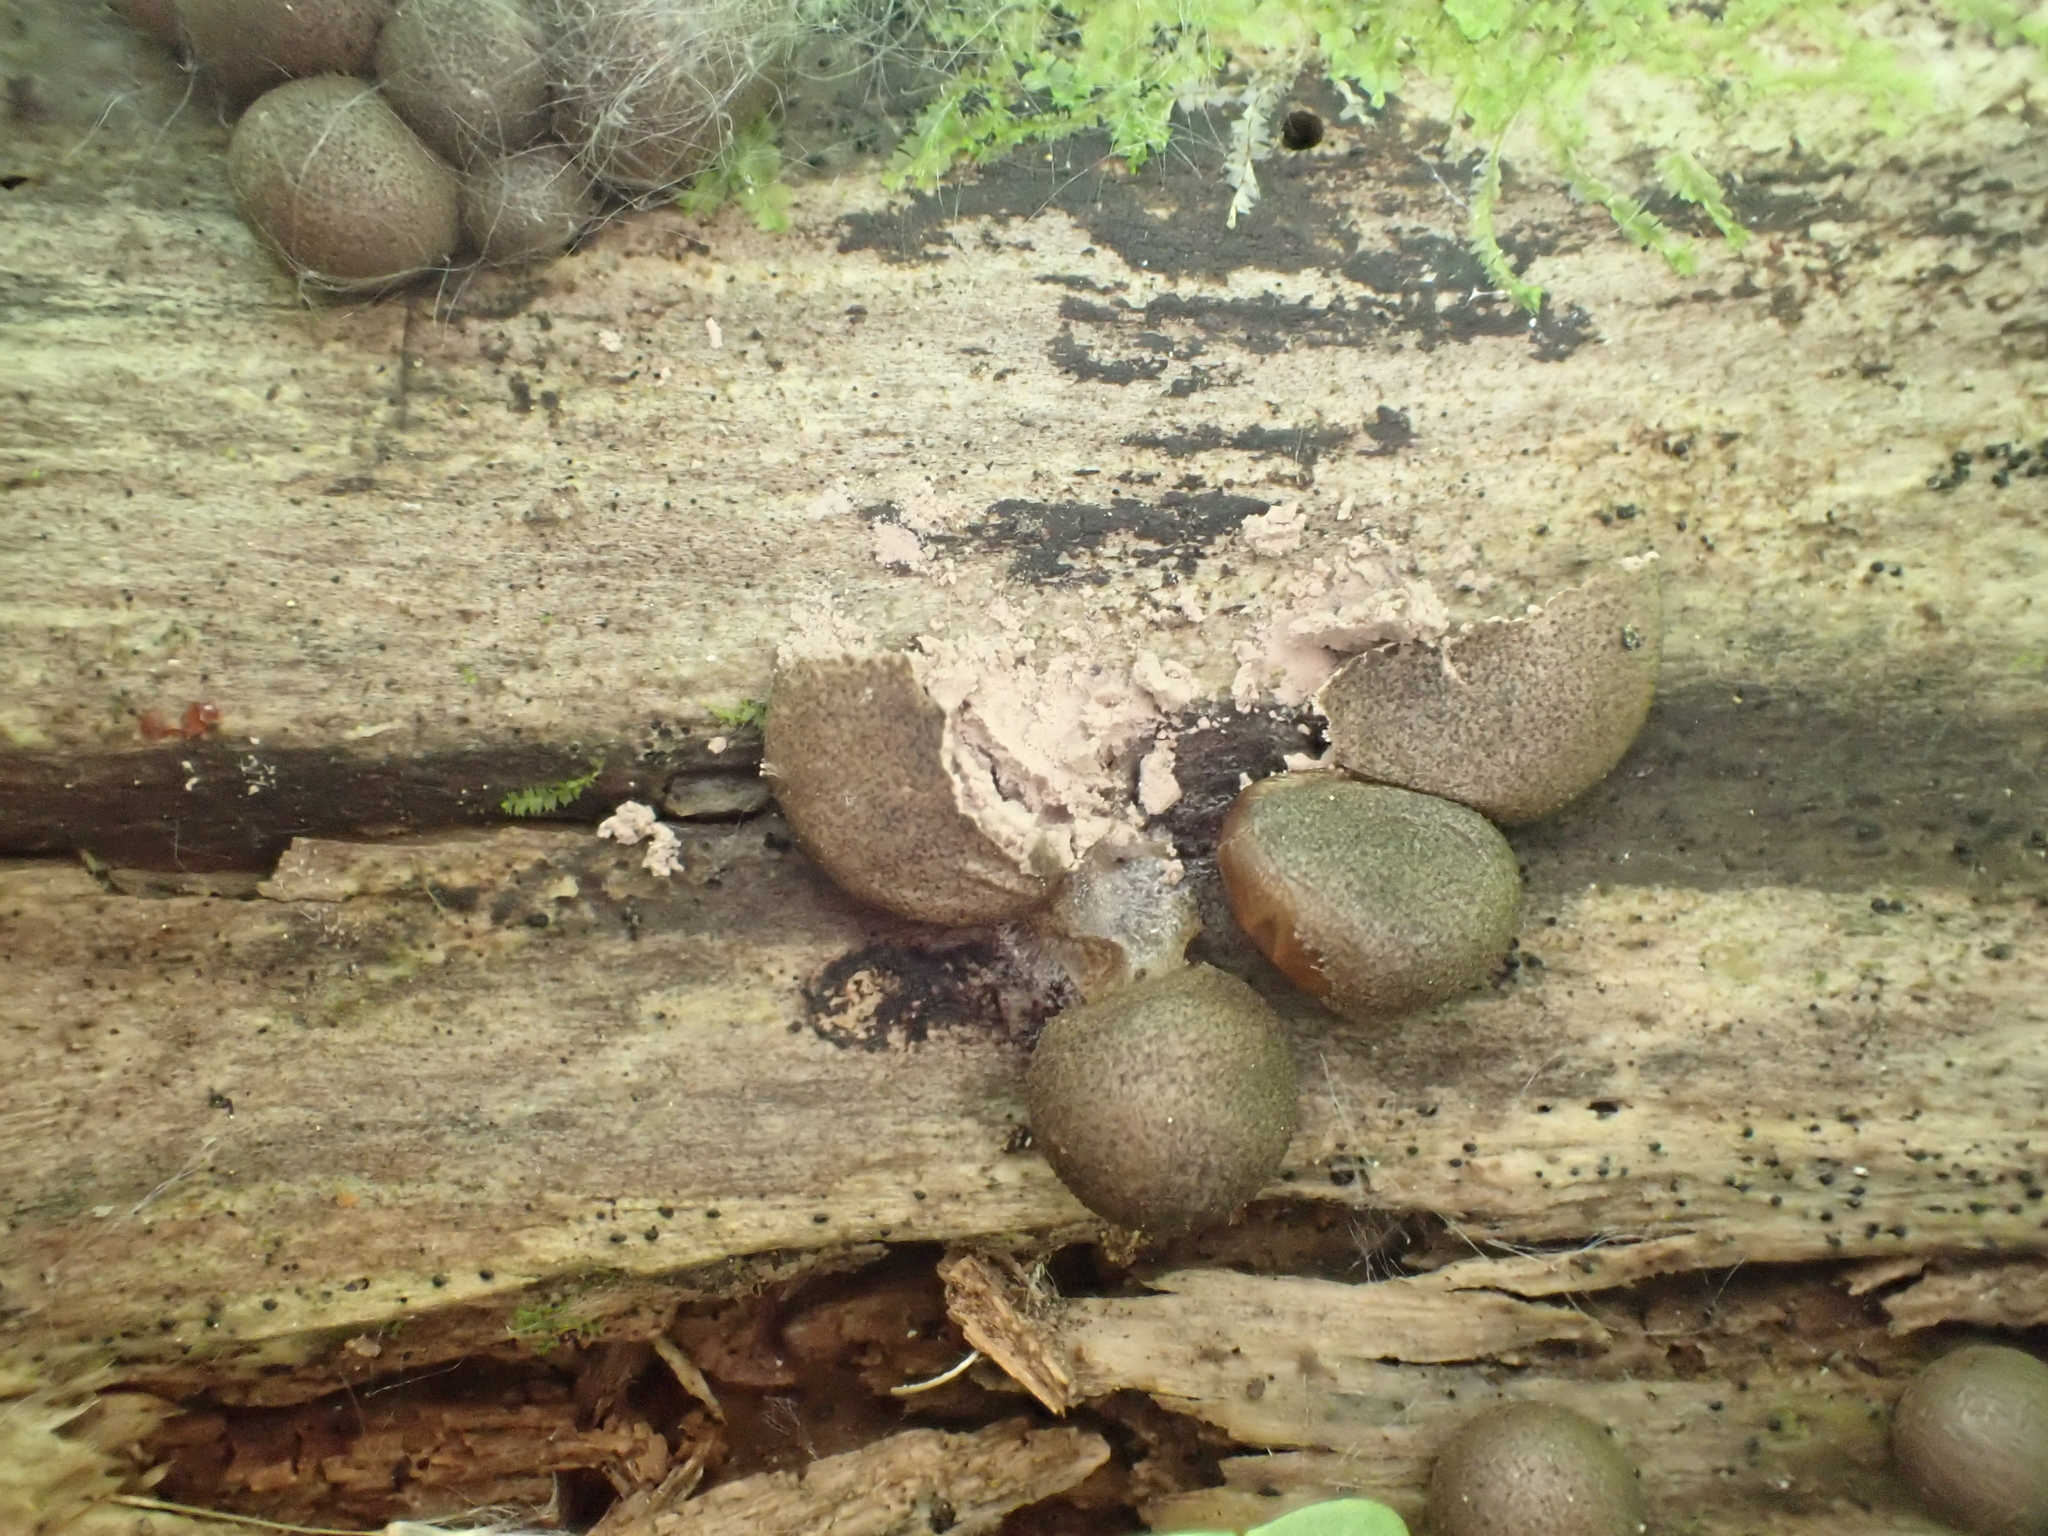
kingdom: Protozoa
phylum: Mycetozoa
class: Myxomycetes
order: Cribrariales
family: Tubiferaceae
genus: Lycogala
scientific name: Lycogala epidendrum
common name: Wolf's milk
